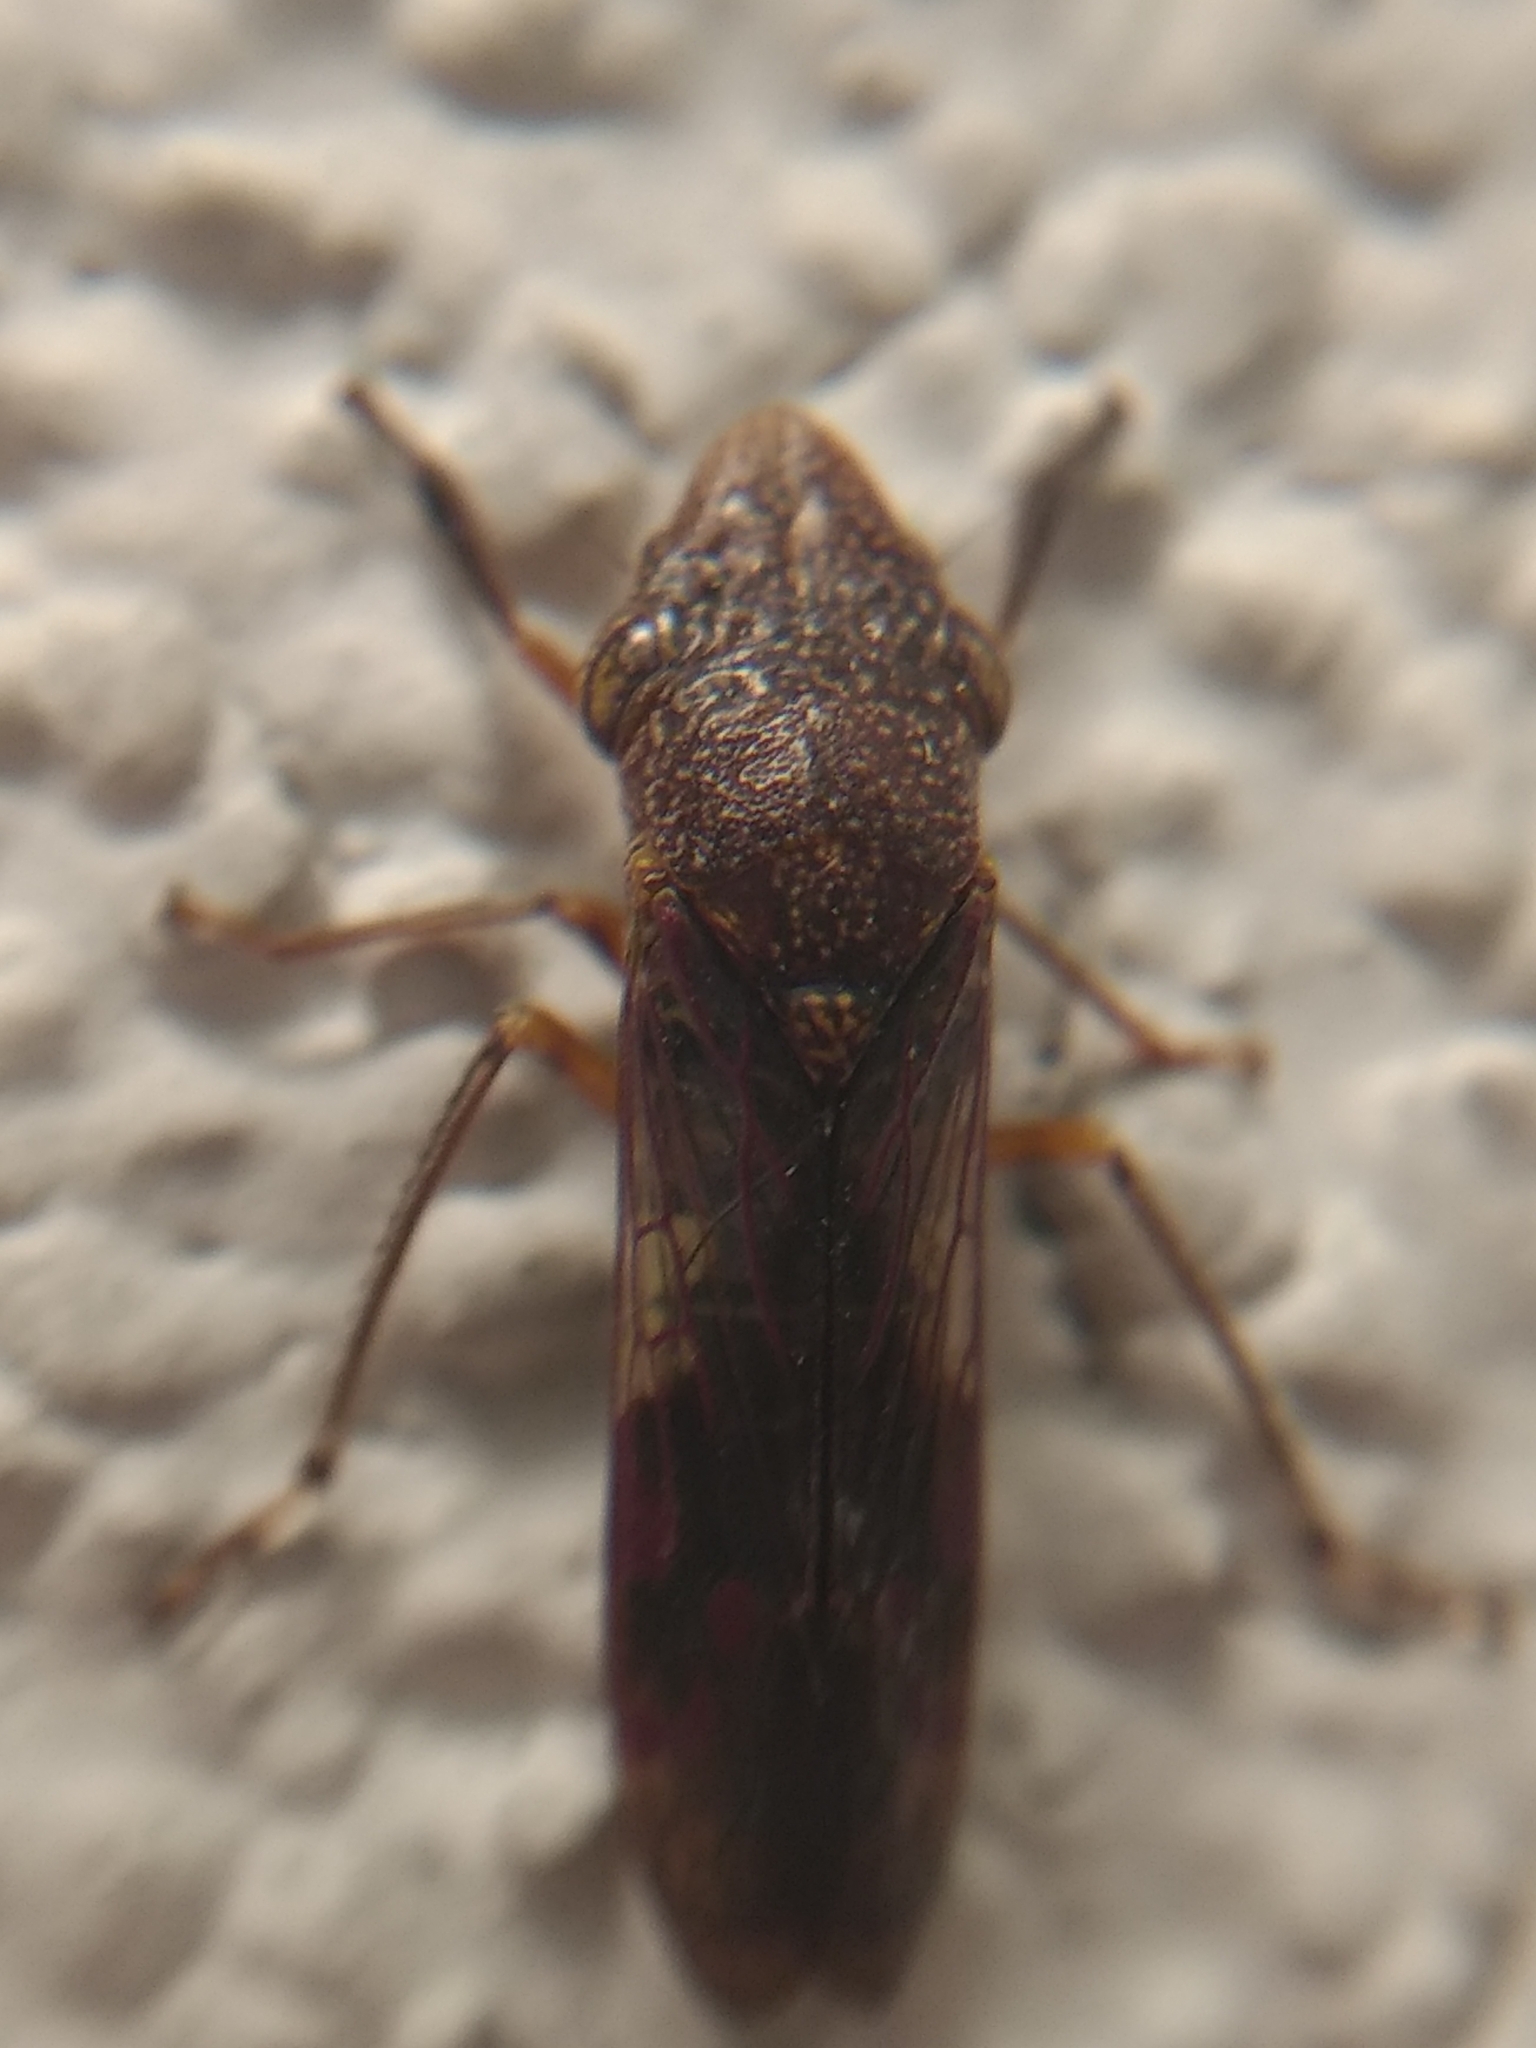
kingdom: Animalia
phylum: Arthropoda
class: Insecta
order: Hemiptera
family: Cicadellidae
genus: Homalodisca
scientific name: Homalodisca vitripennis
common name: Glassy-winged sharpshooter
